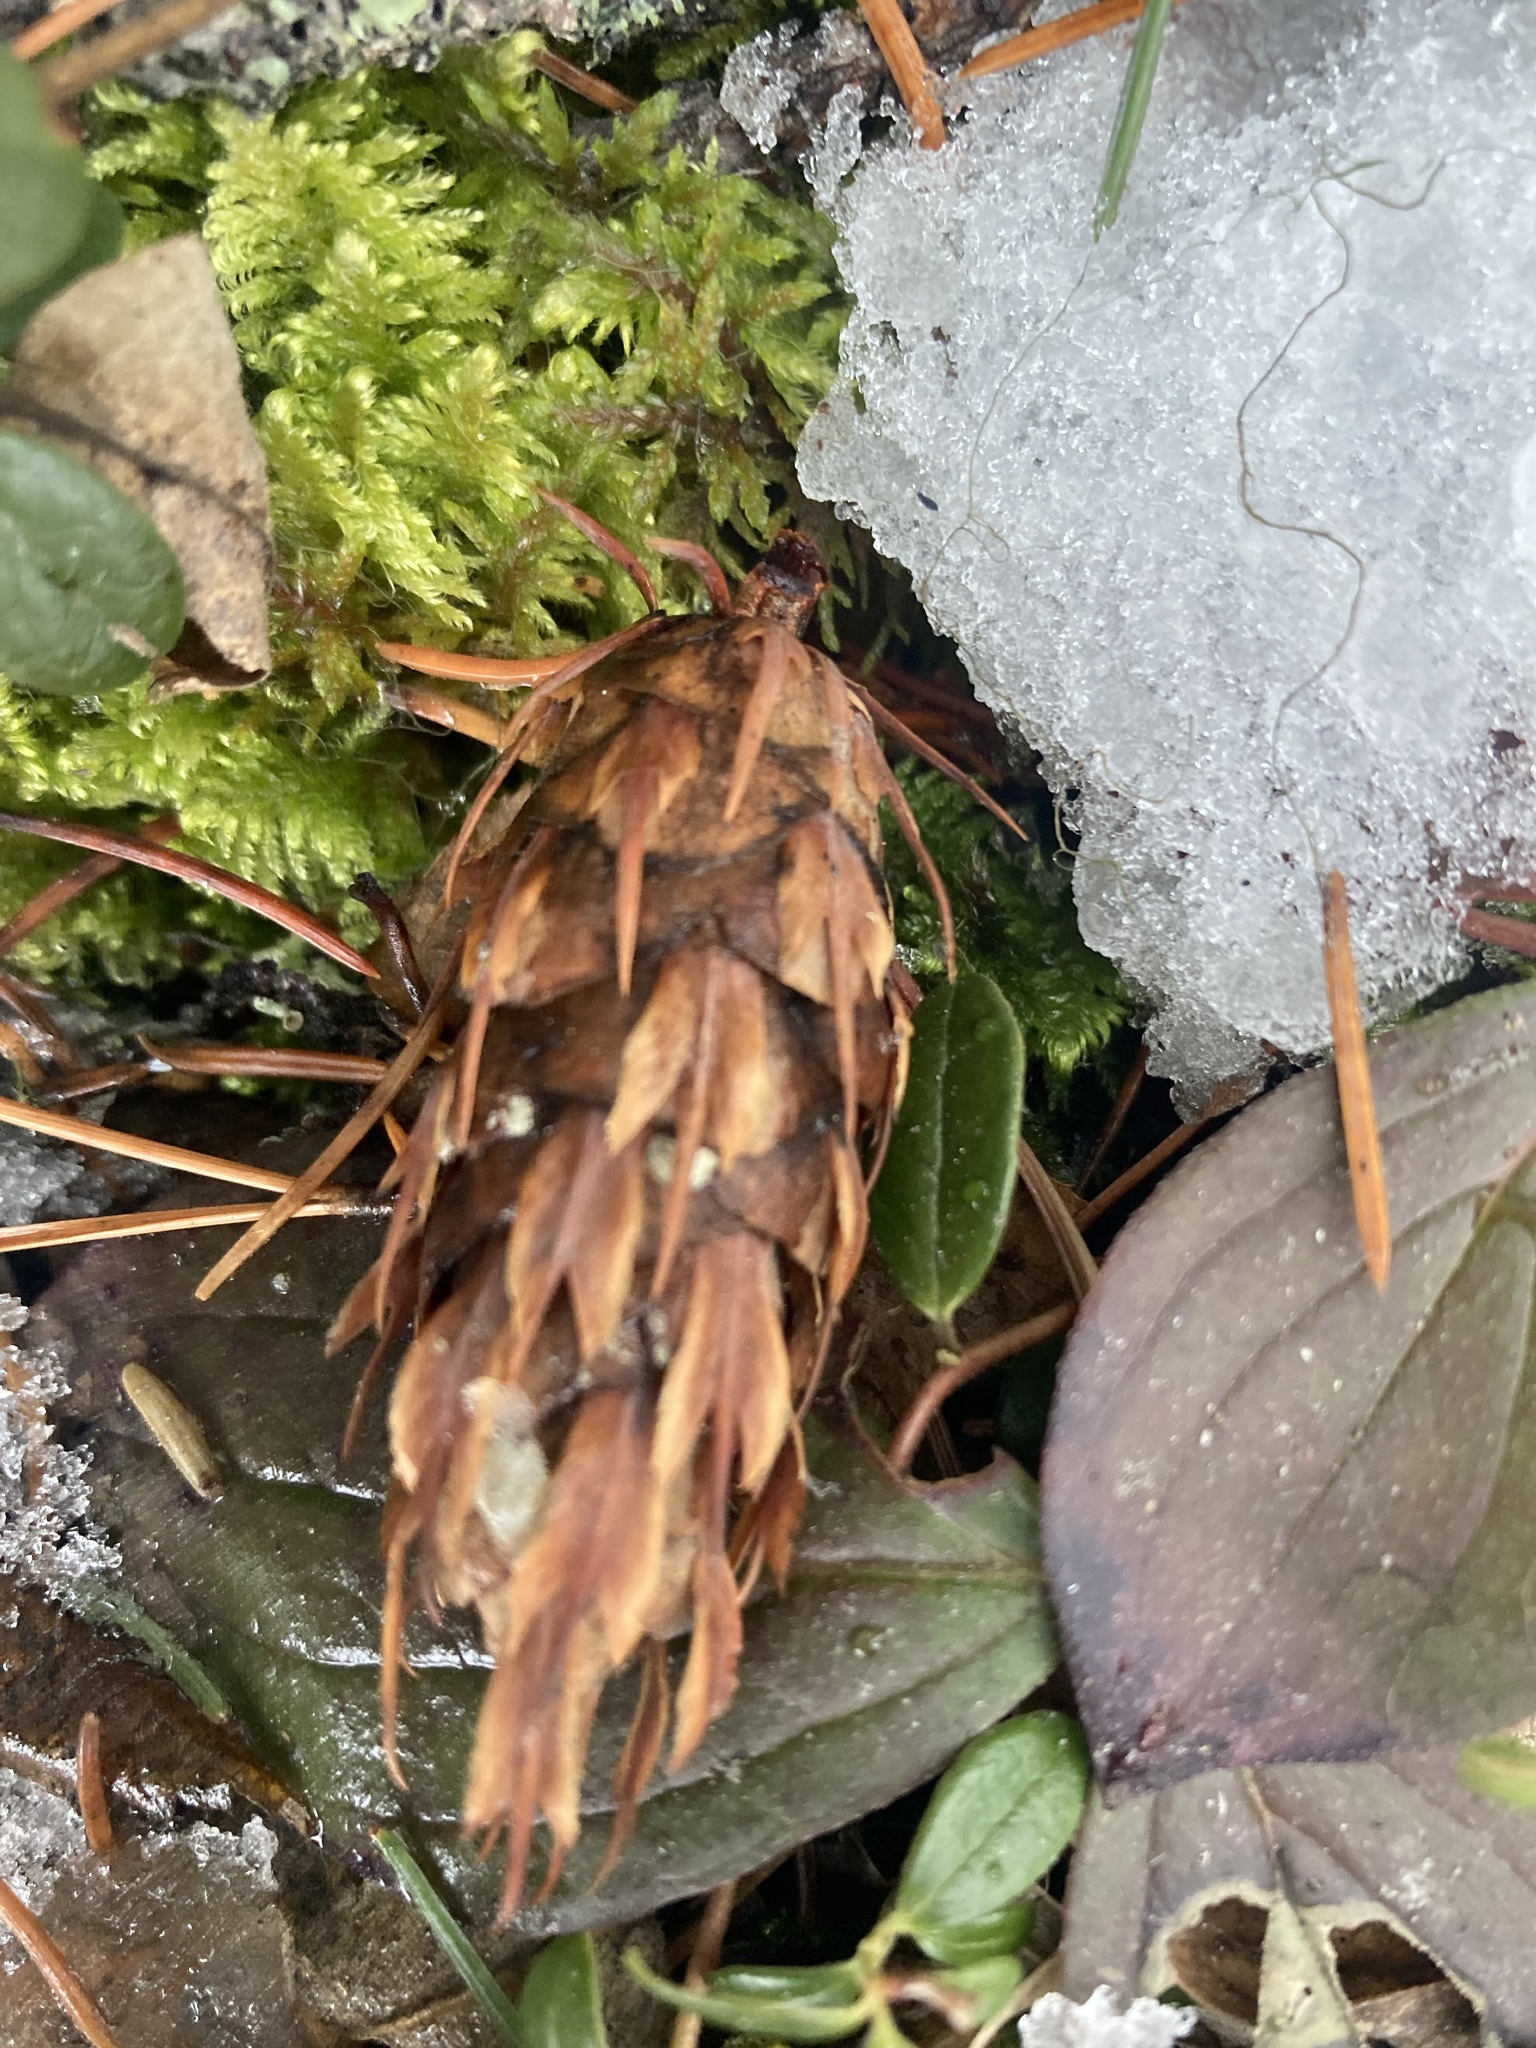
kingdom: Plantae
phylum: Tracheophyta
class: Pinopsida
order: Pinales
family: Pinaceae
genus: Pseudotsuga
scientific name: Pseudotsuga menziesii
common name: Douglas fir
